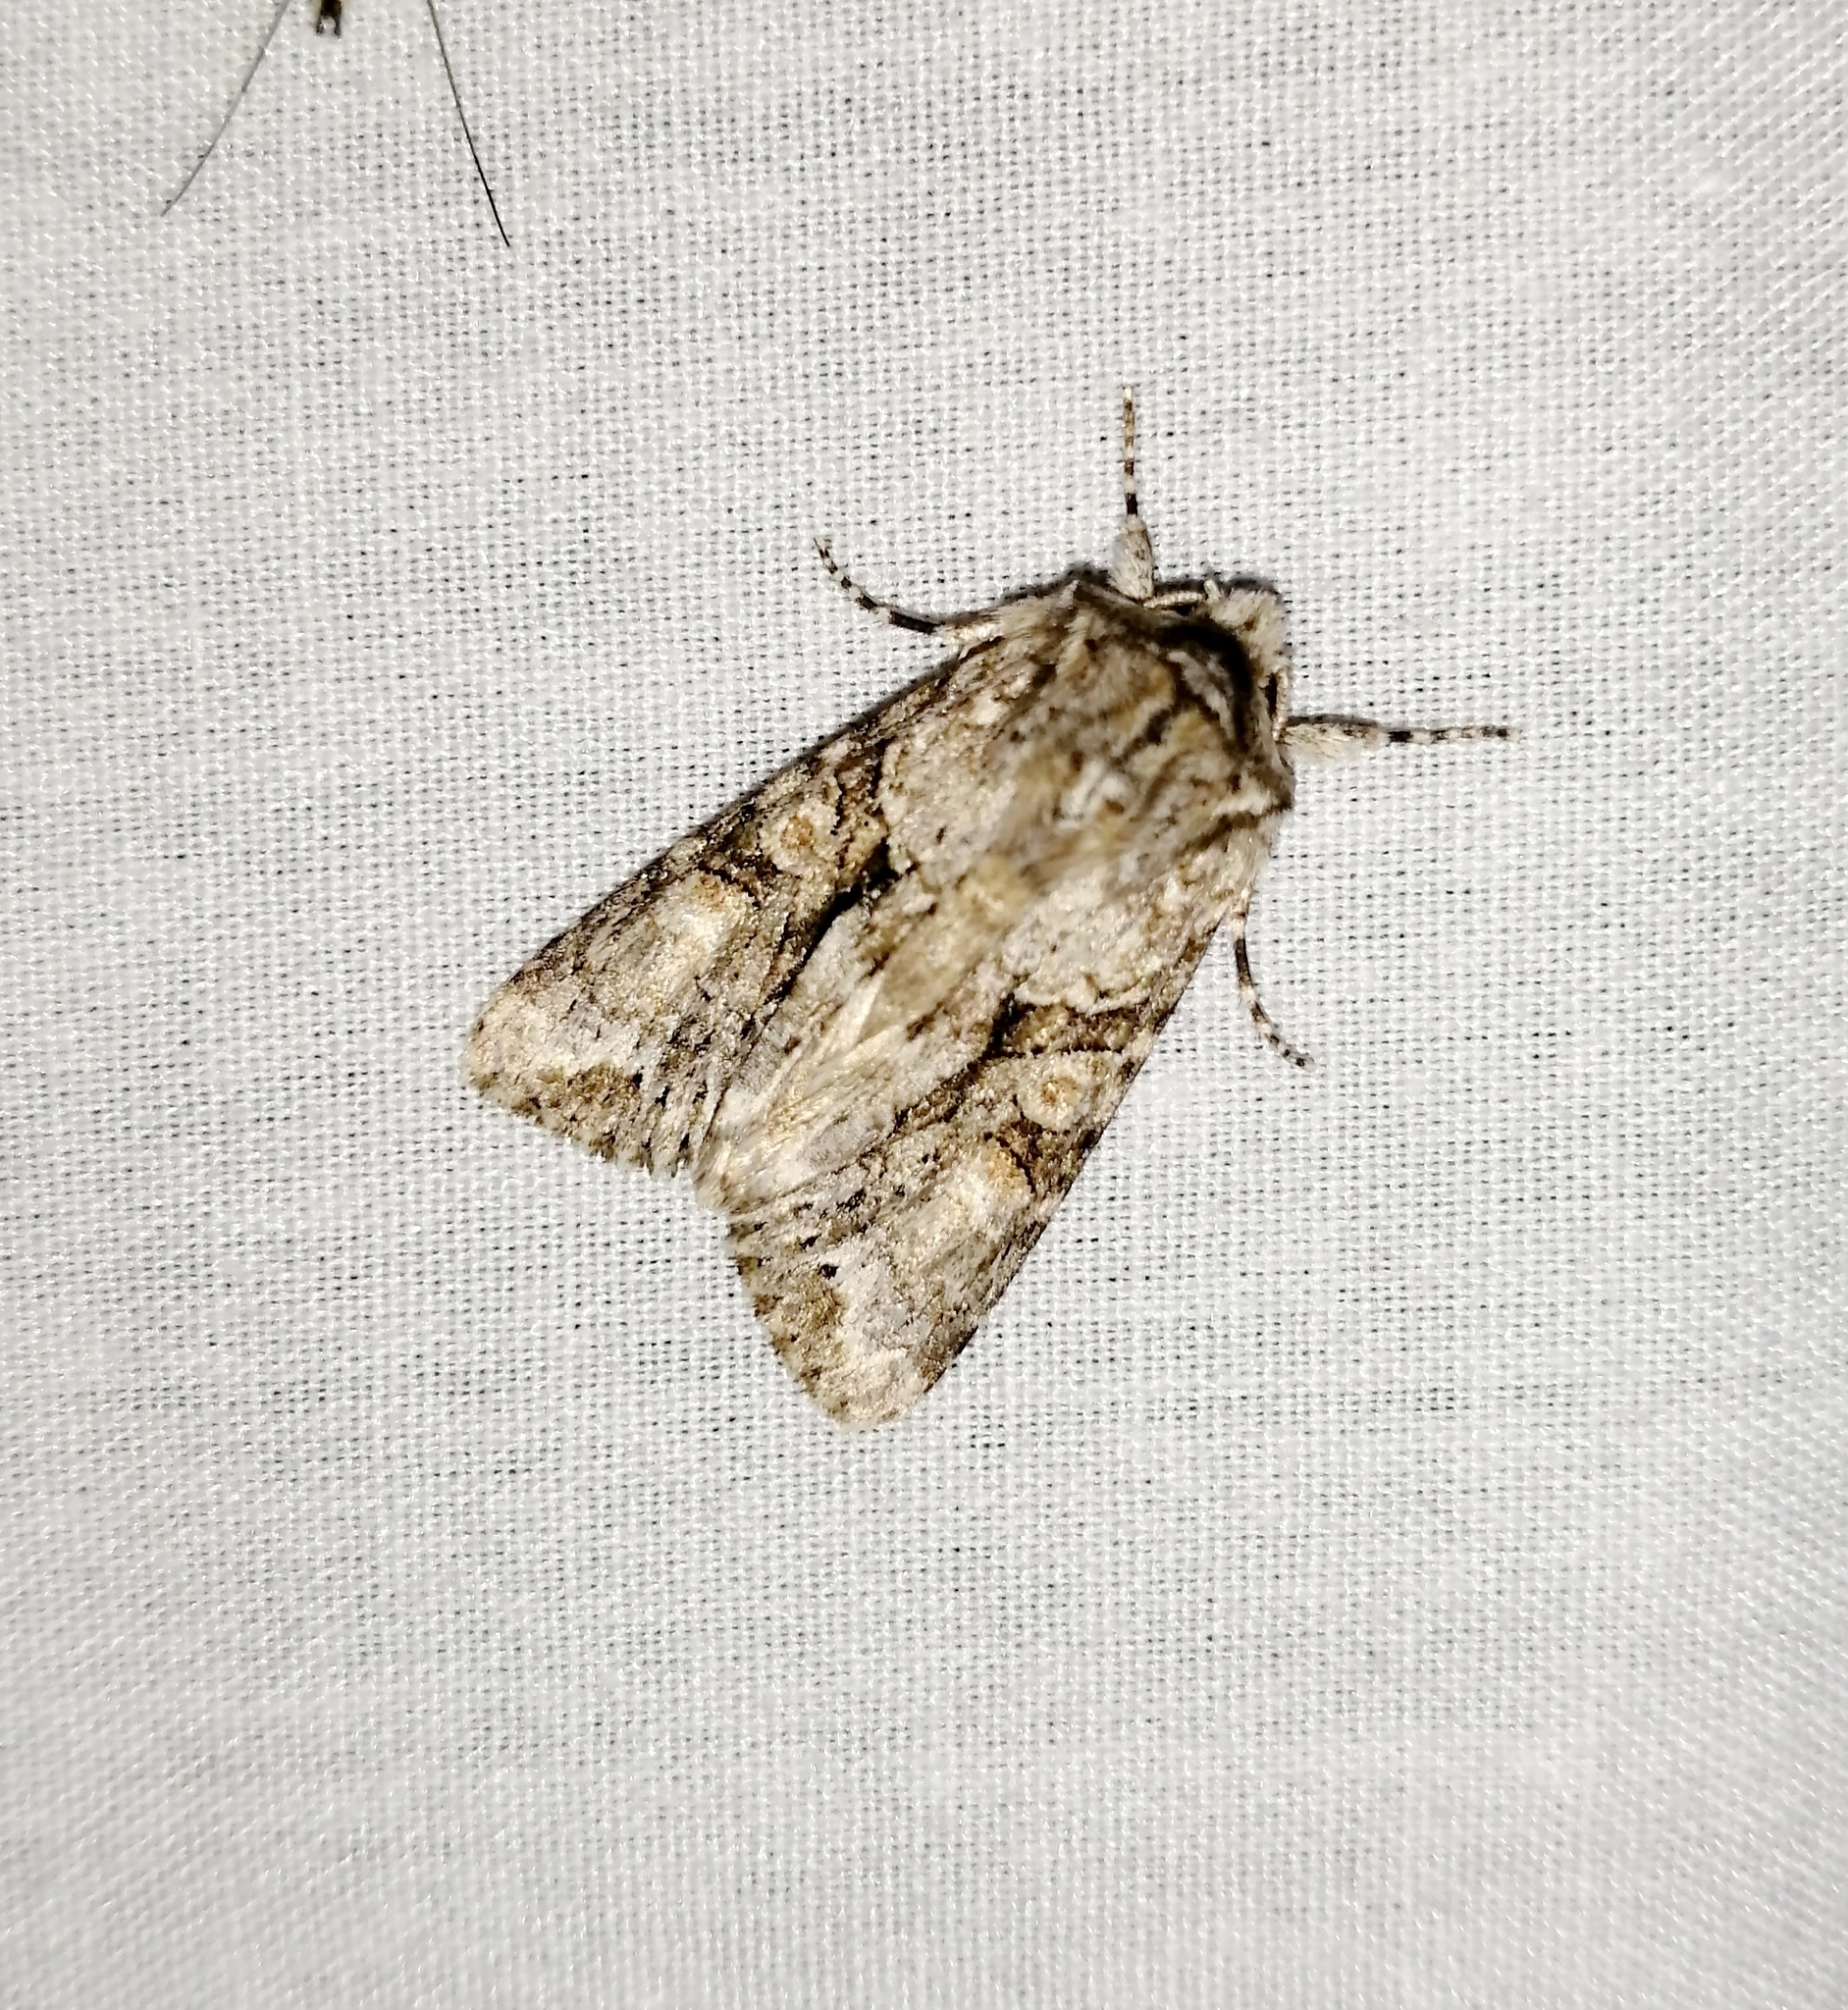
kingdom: Animalia
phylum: Arthropoda
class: Insecta
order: Lepidoptera
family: Noctuidae
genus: Achatia
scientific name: Achatia distincta
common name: Distinct quaker
